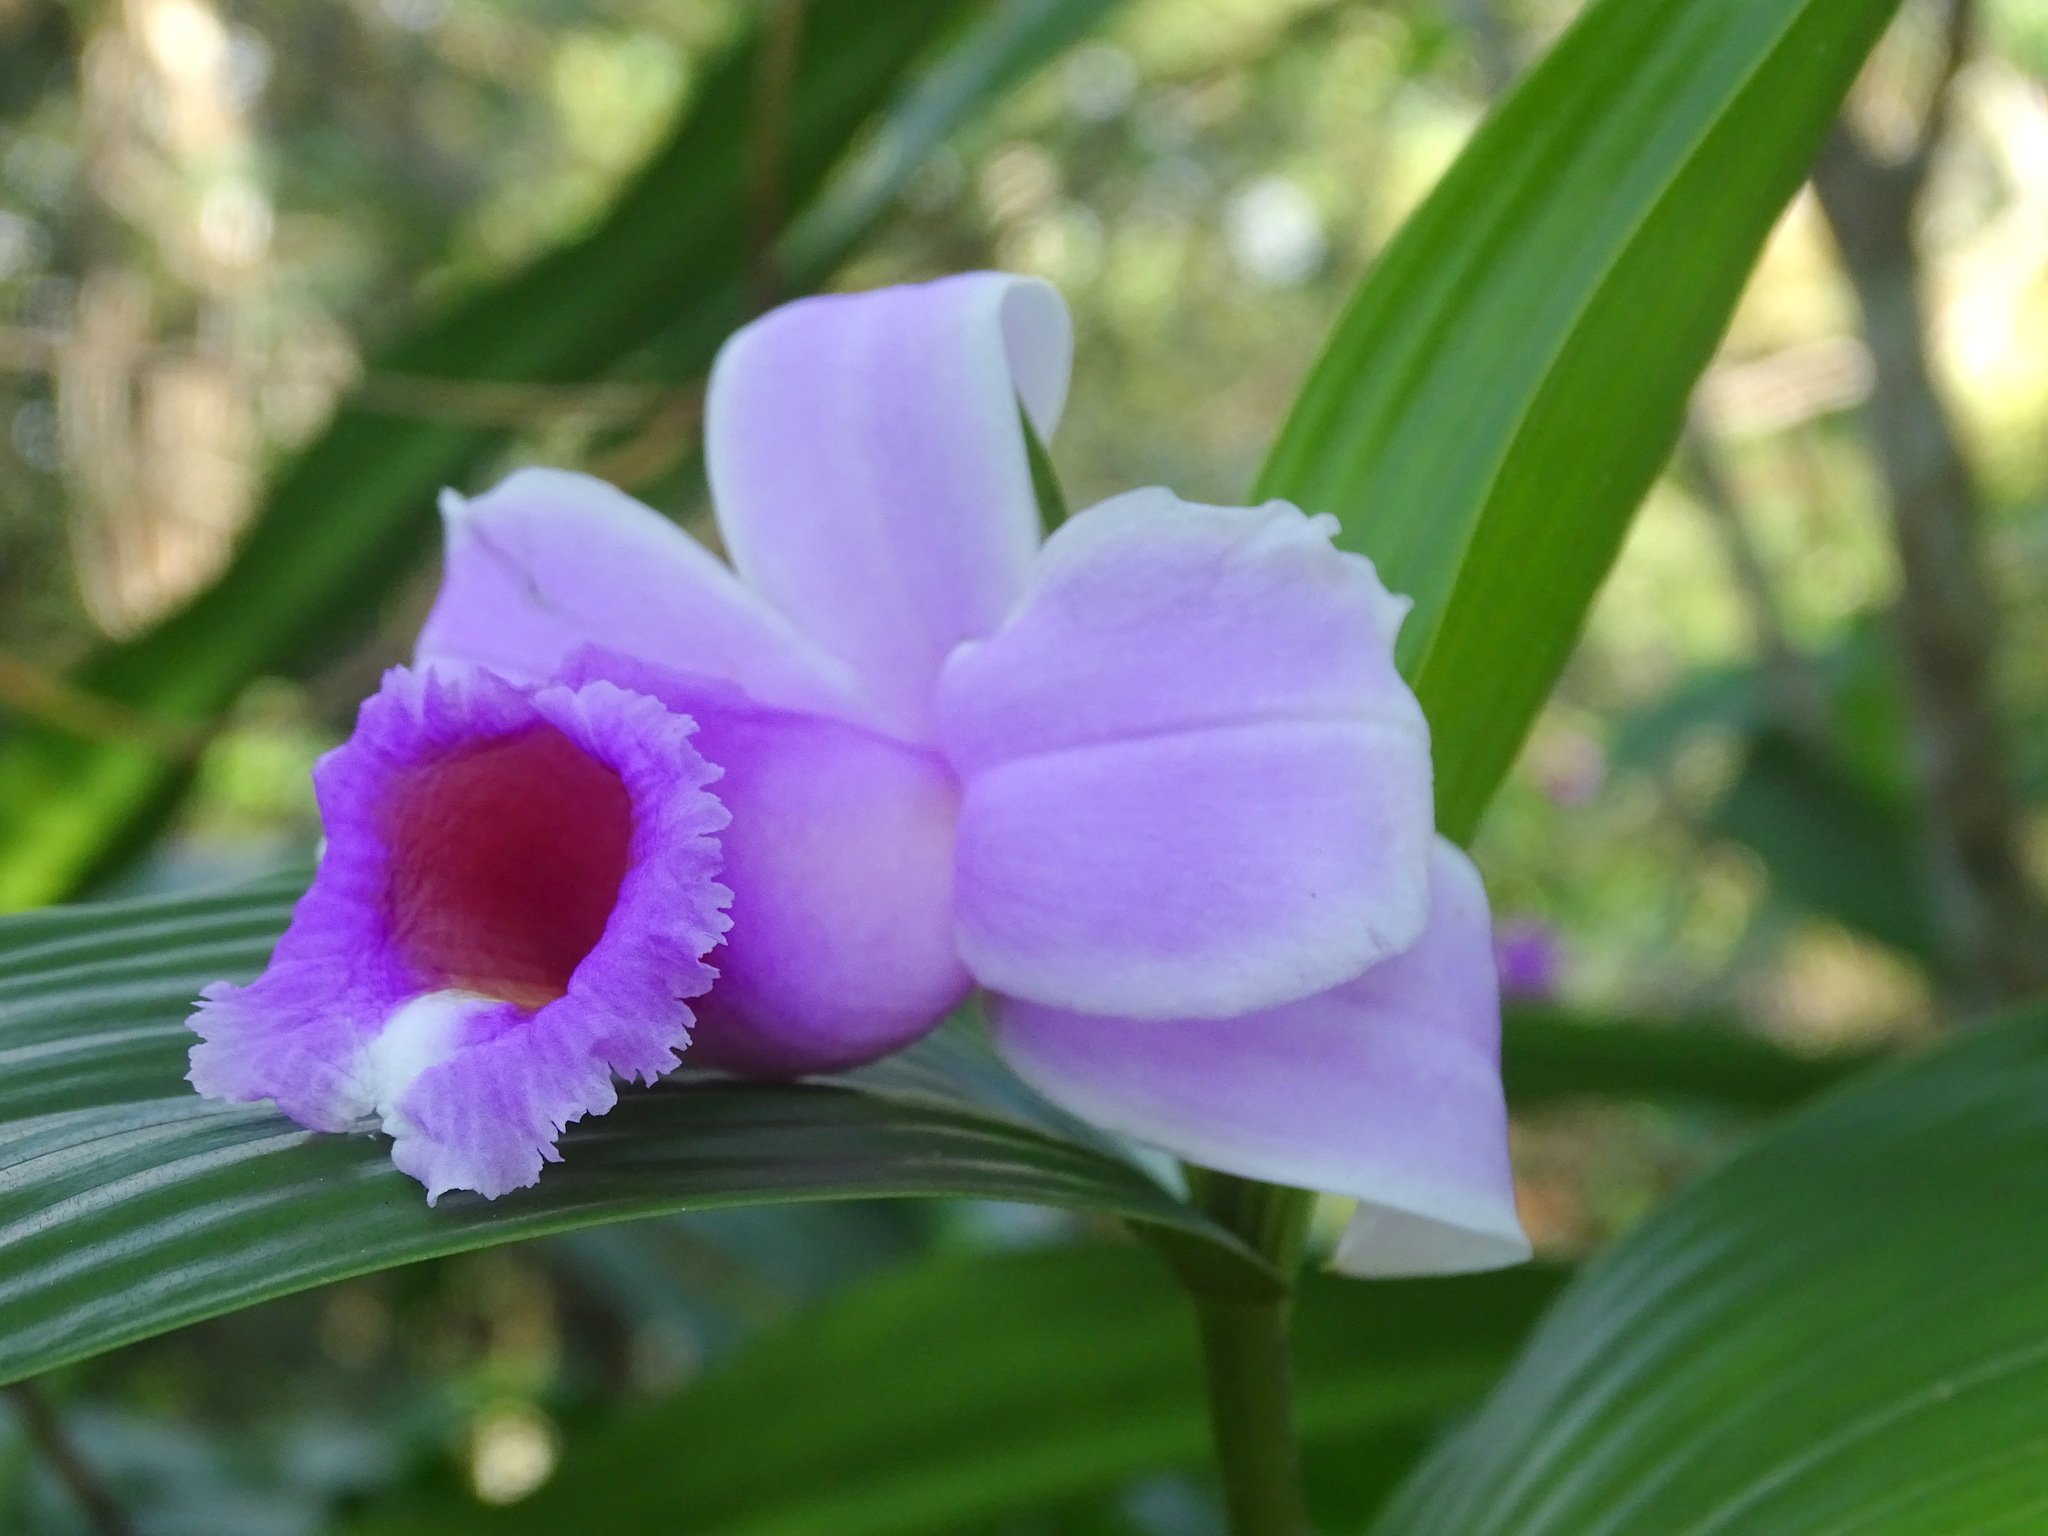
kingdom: Plantae
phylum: Tracheophyta
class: Liliopsida
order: Asparagales
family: Orchidaceae
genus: Sobralia
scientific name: Sobralia decora
